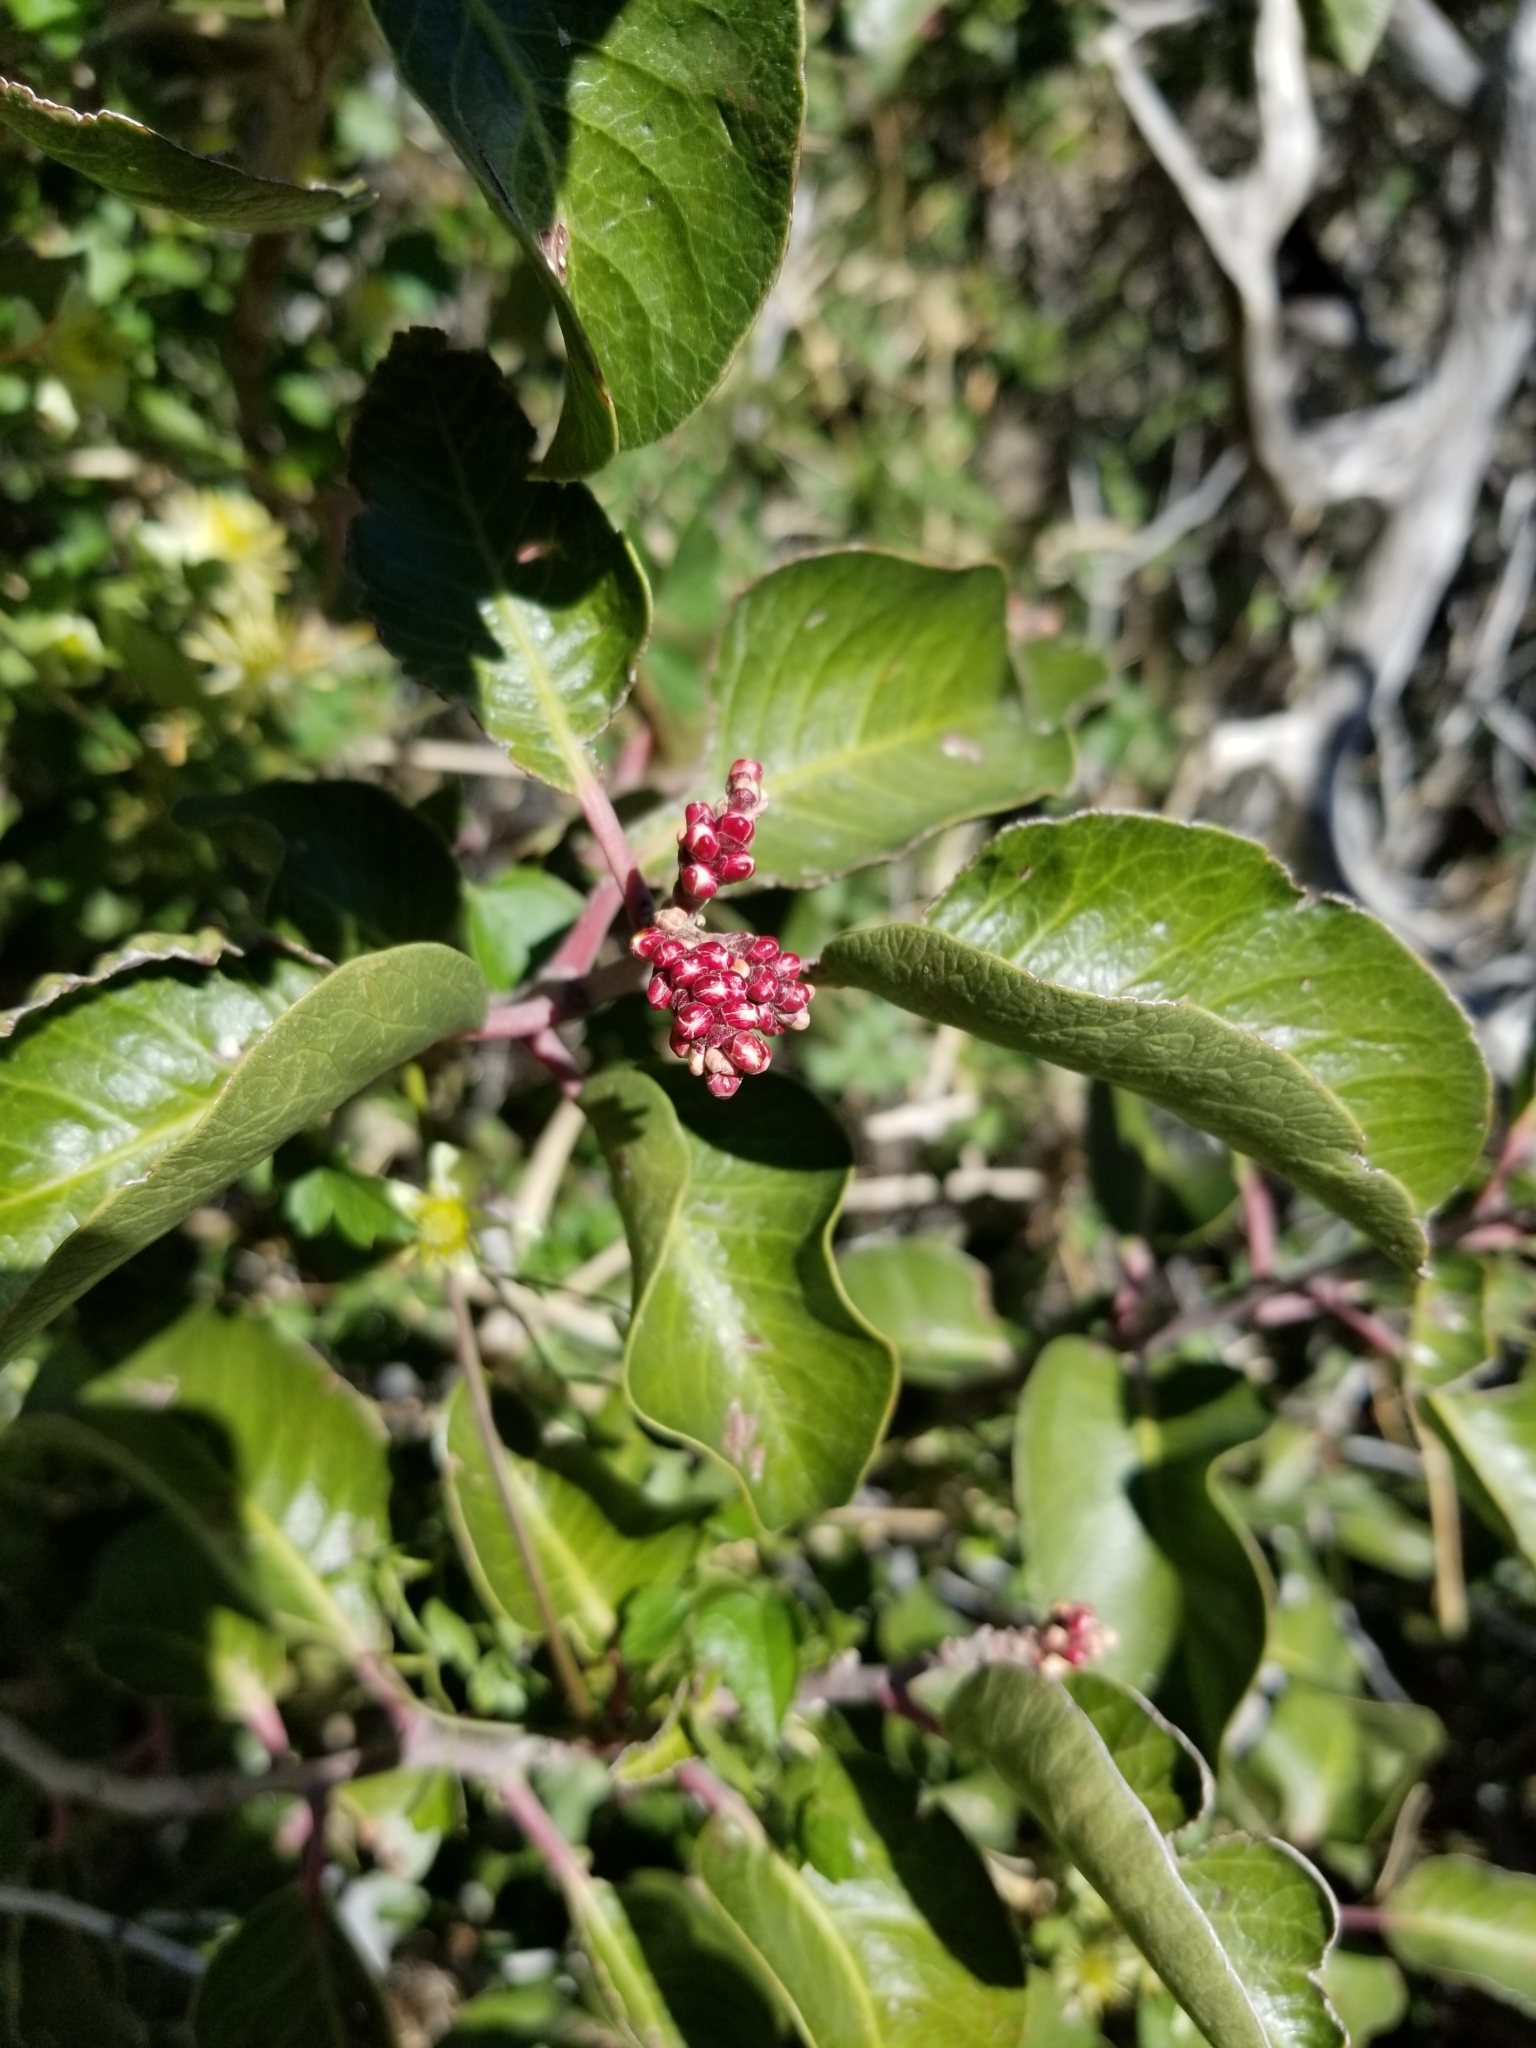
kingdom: Plantae
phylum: Tracheophyta
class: Magnoliopsida
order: Sapindales
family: Anacardiaceae
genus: Rhus
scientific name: Rhus ovata
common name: Sugar sumac
